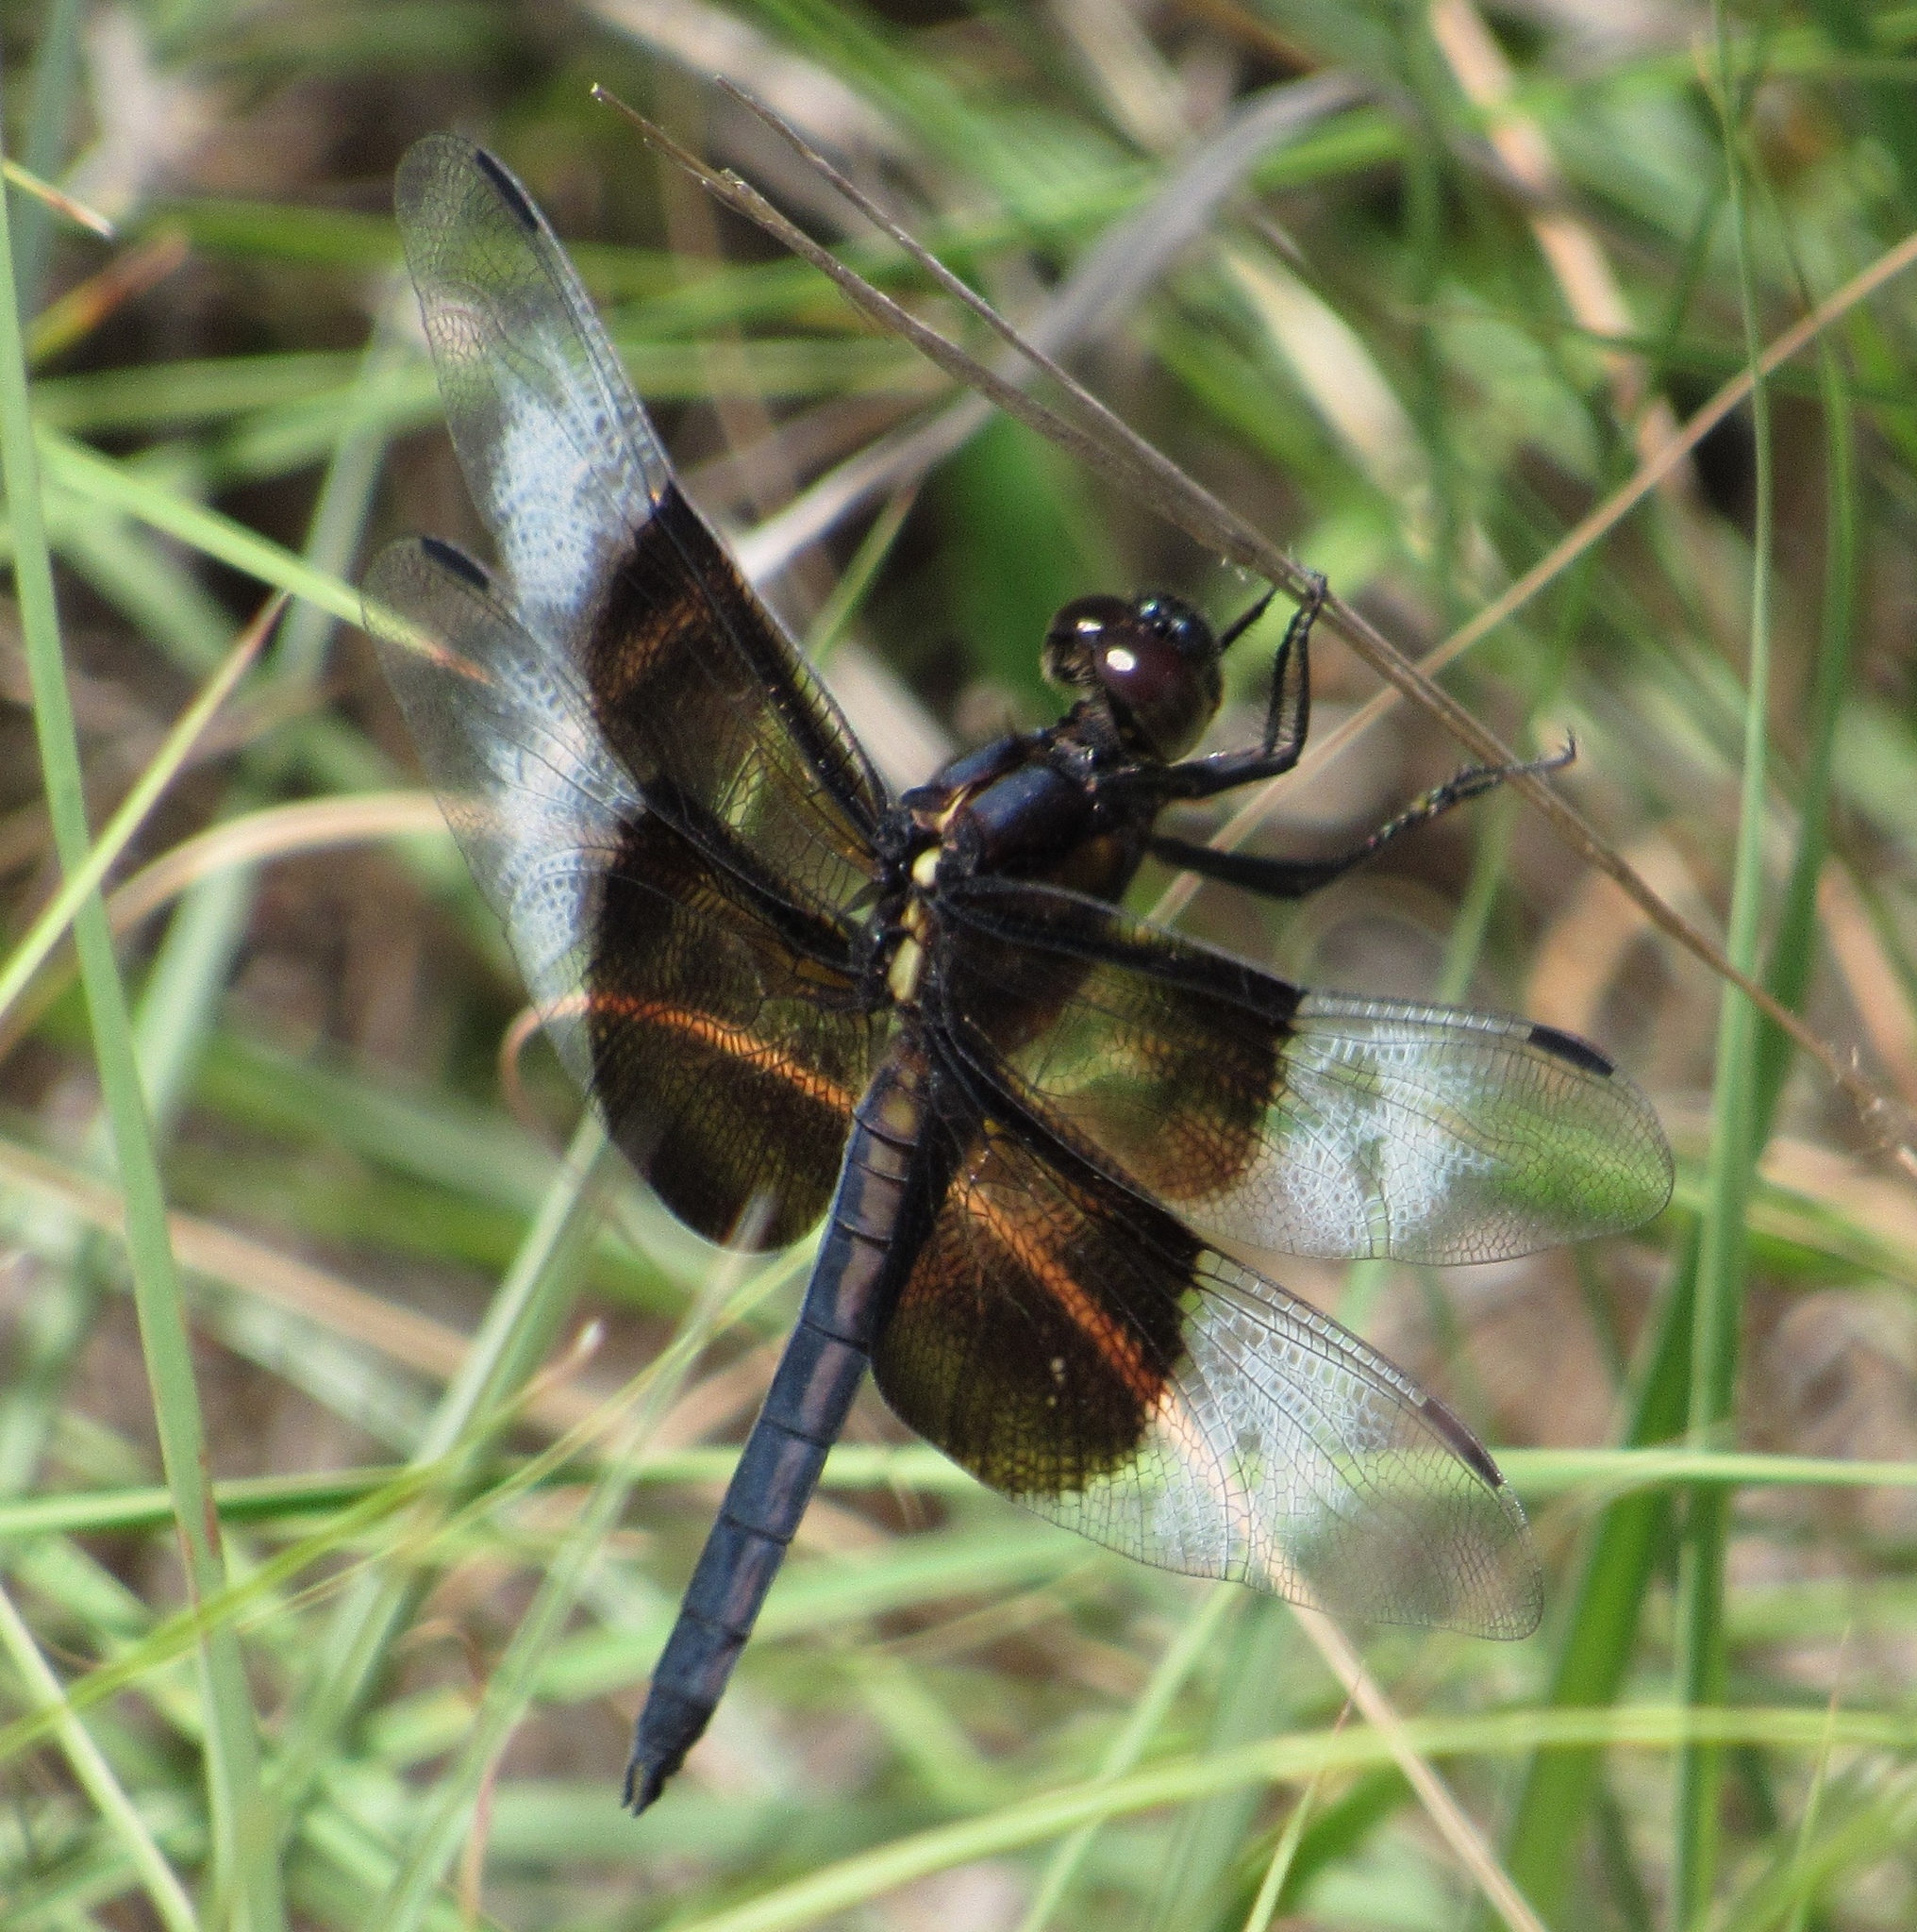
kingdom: Animalia
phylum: Arthropoda
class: Insecta
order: Odonata
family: Libellulidae
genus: Libellula
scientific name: Libellula luctuosa
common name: Widow skimmer
